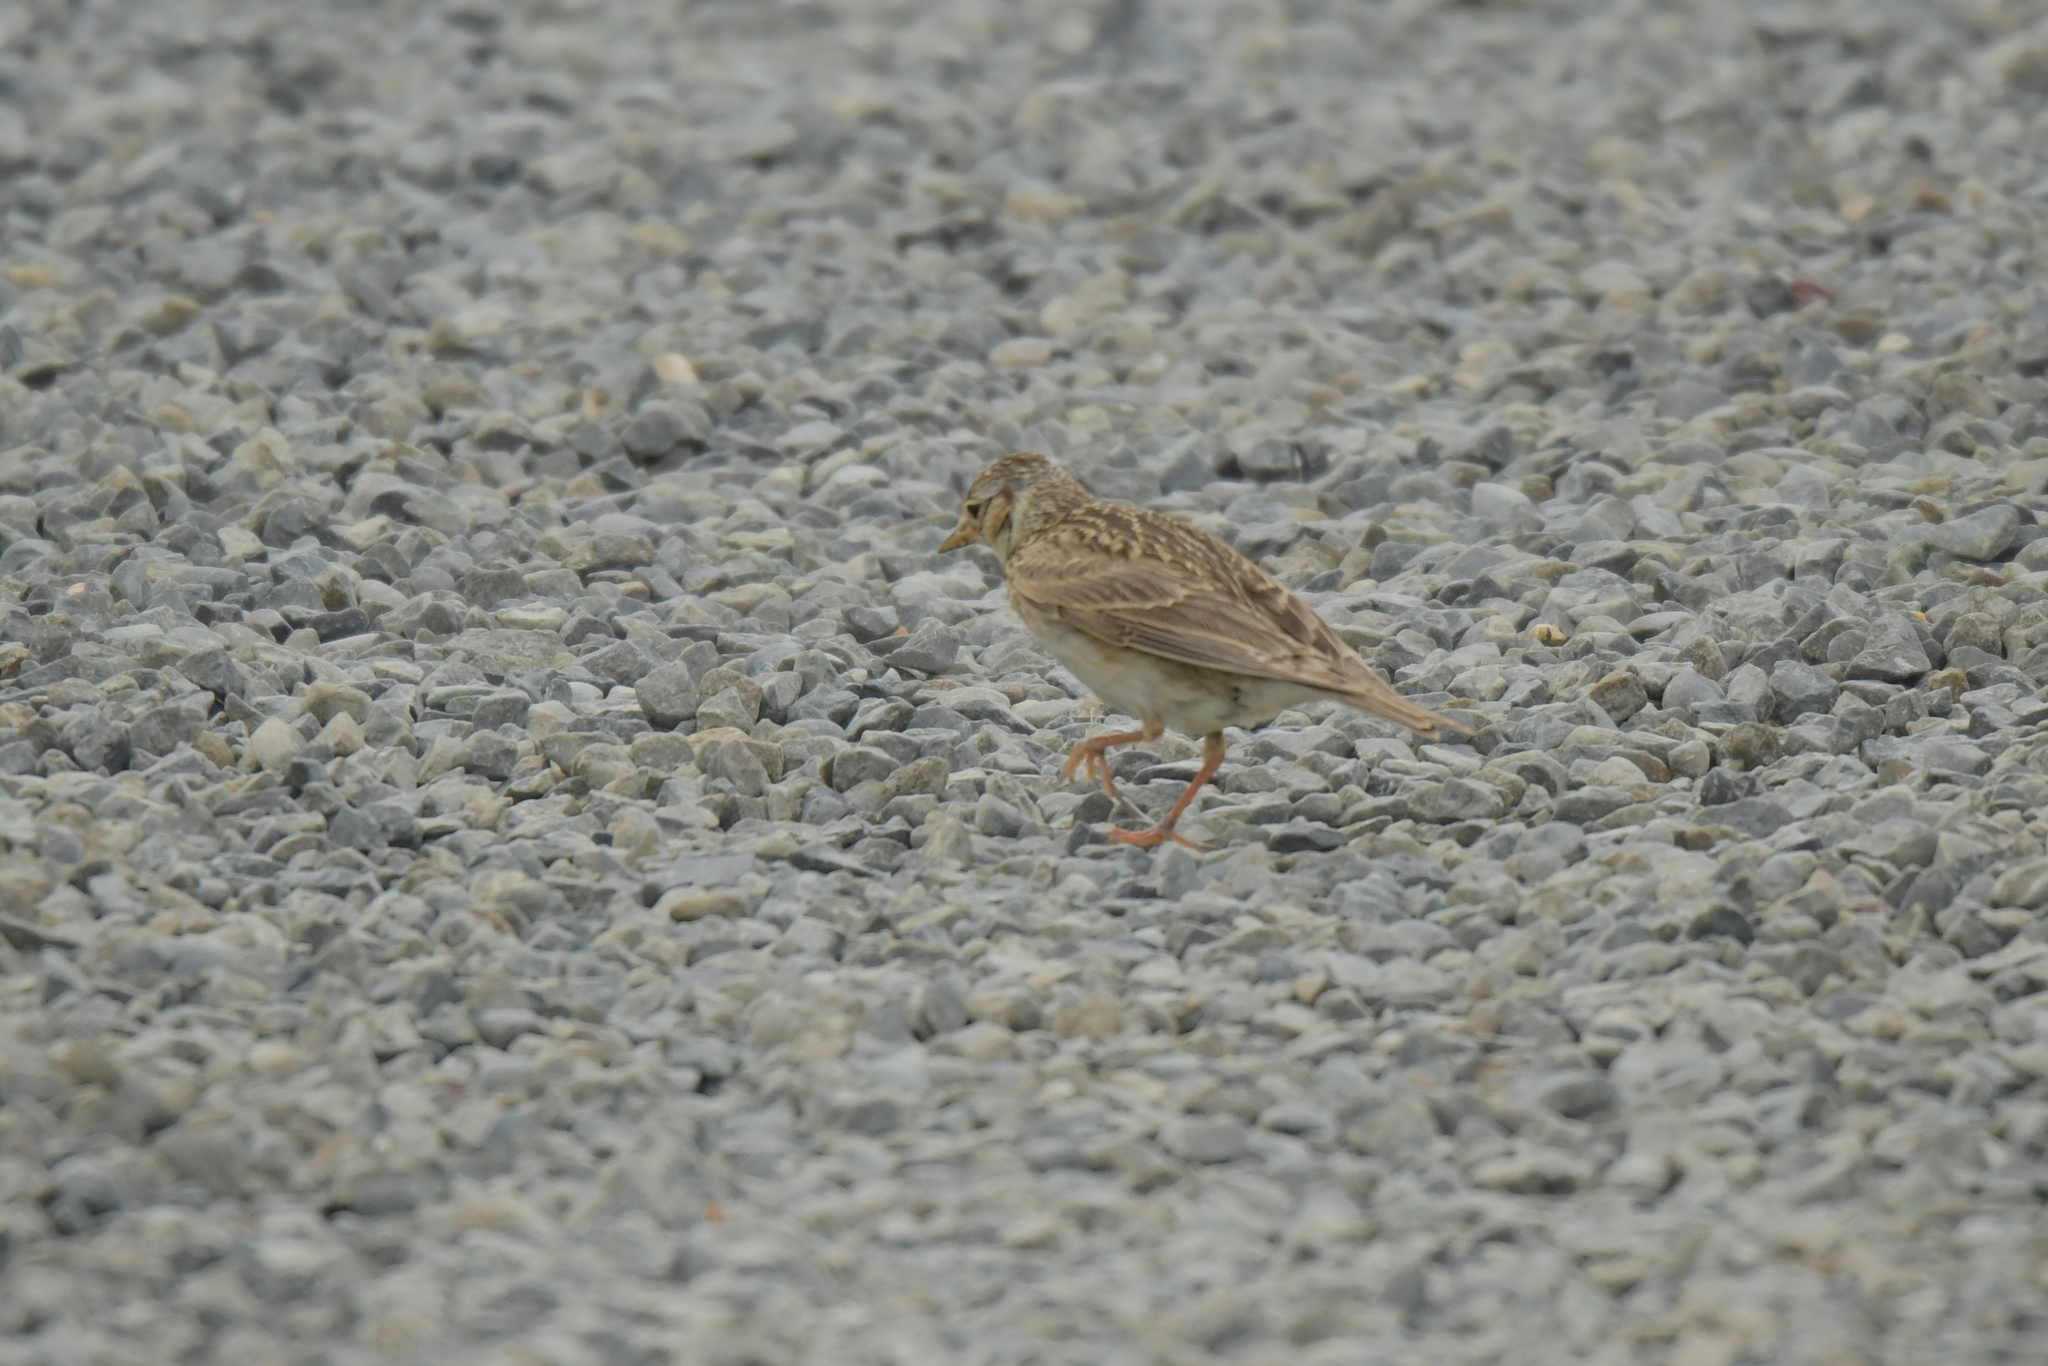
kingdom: Animalia
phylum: Chordata
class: Aves
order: Passeriformes
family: Alaudidae
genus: Alauda
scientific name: Alauda arvensis
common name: Eurasian skylark
